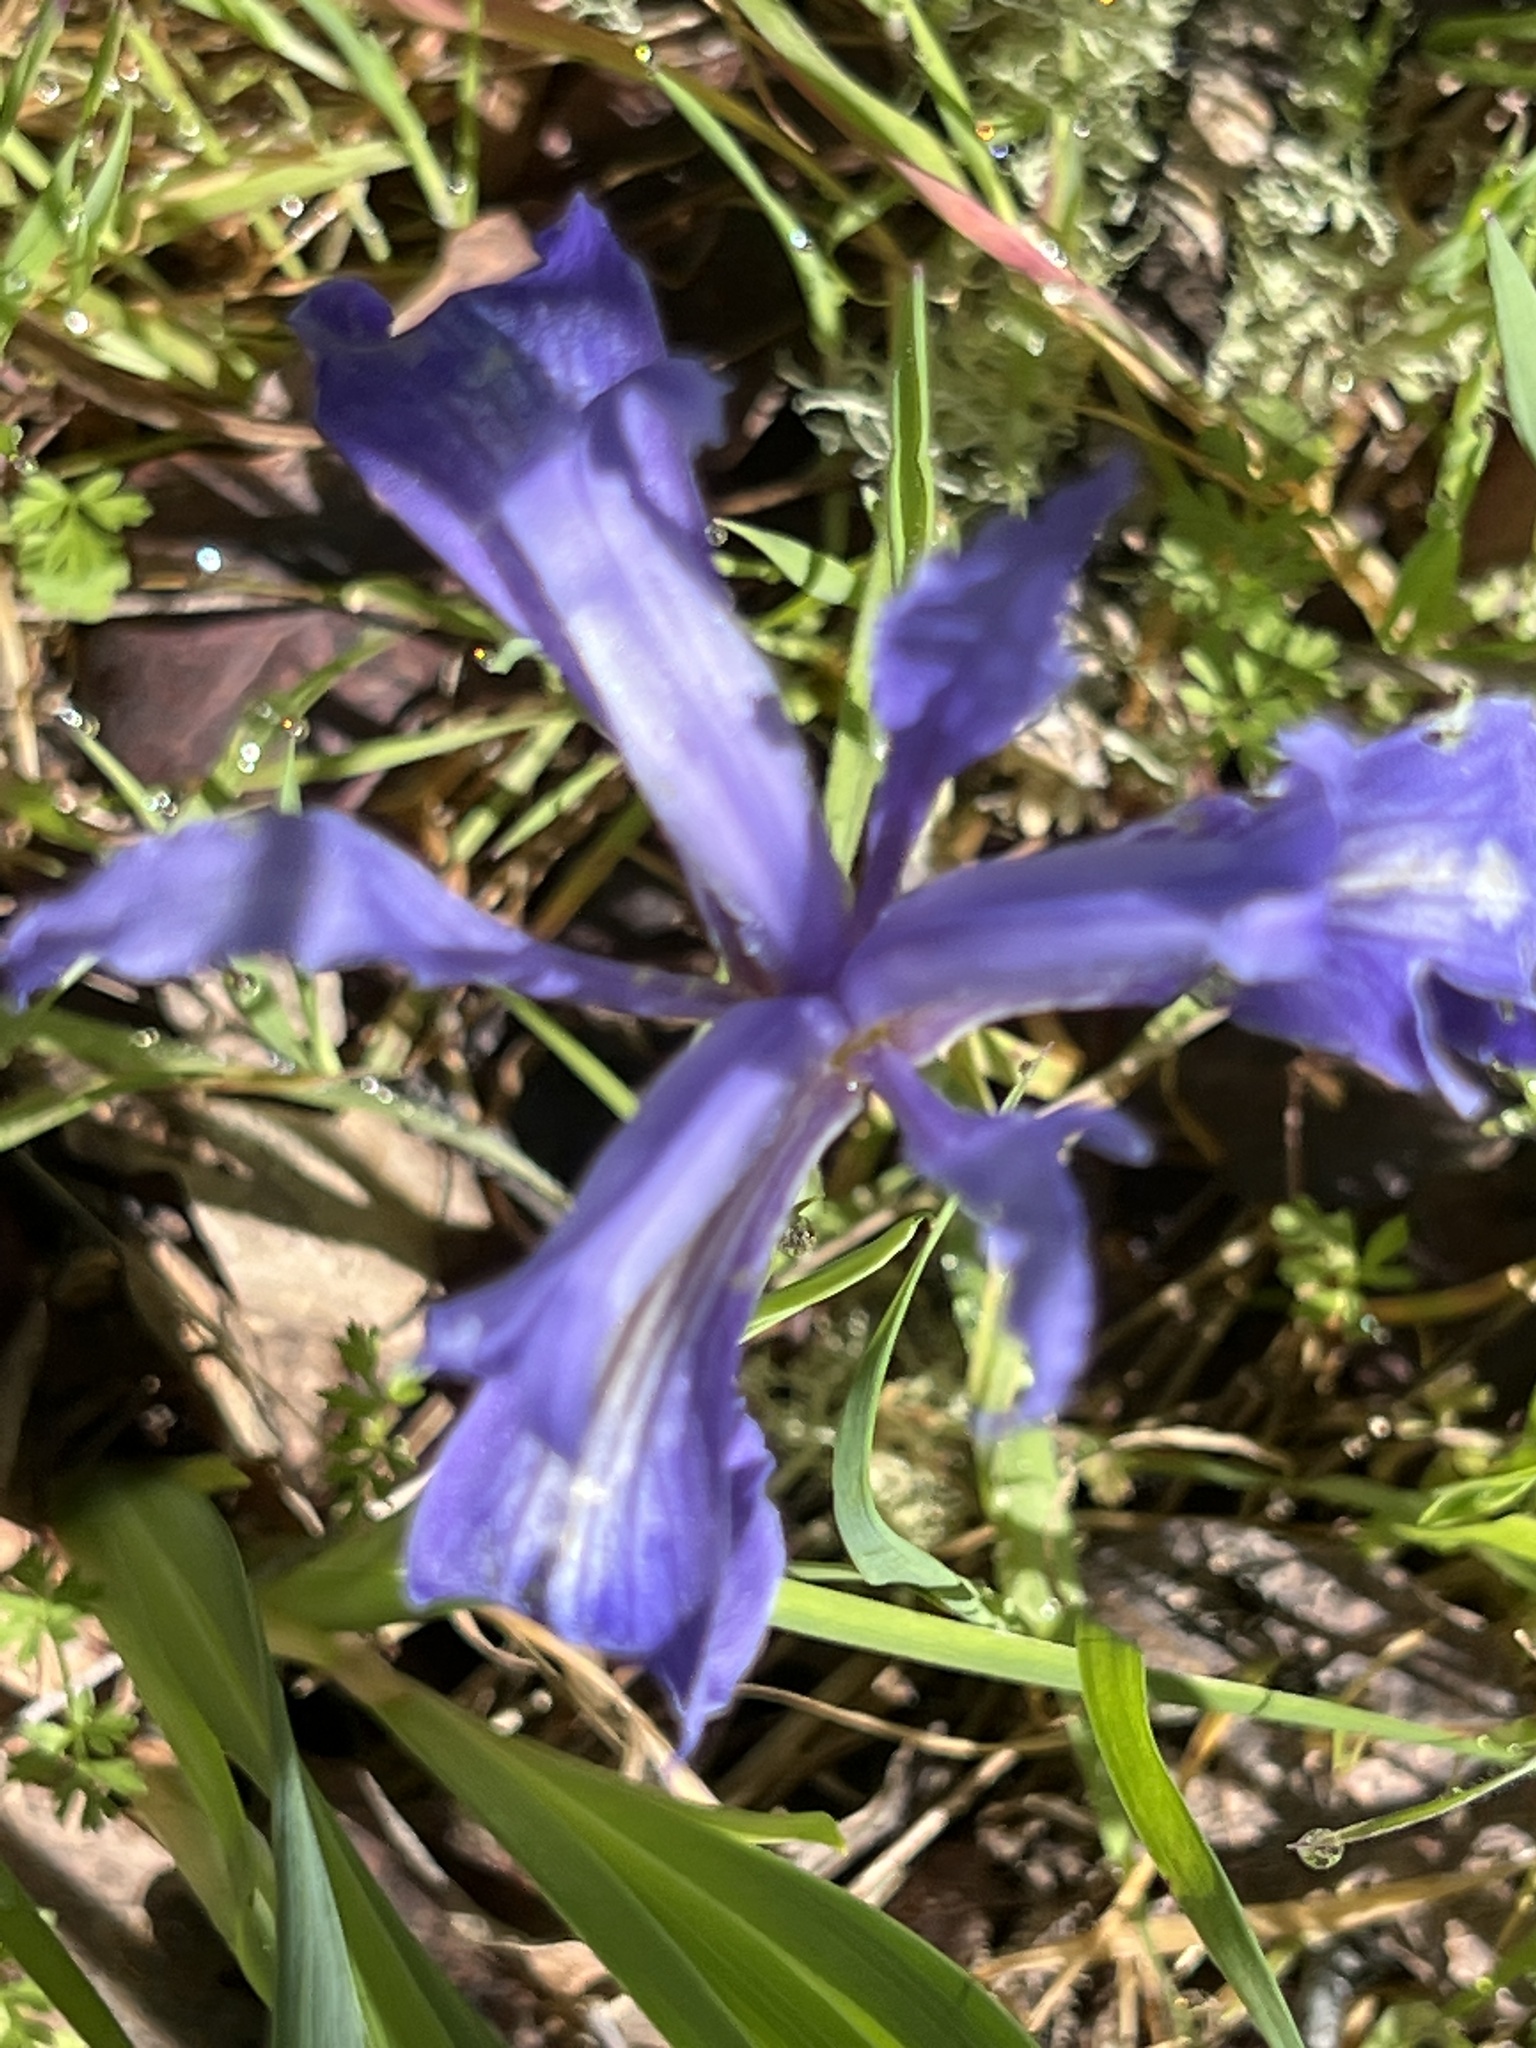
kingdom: Plantae
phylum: Tracheophyta
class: Liliopsida
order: Asparagales
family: Iridaceae
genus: Iris
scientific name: Iris macrosiphon
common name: Ground iris
